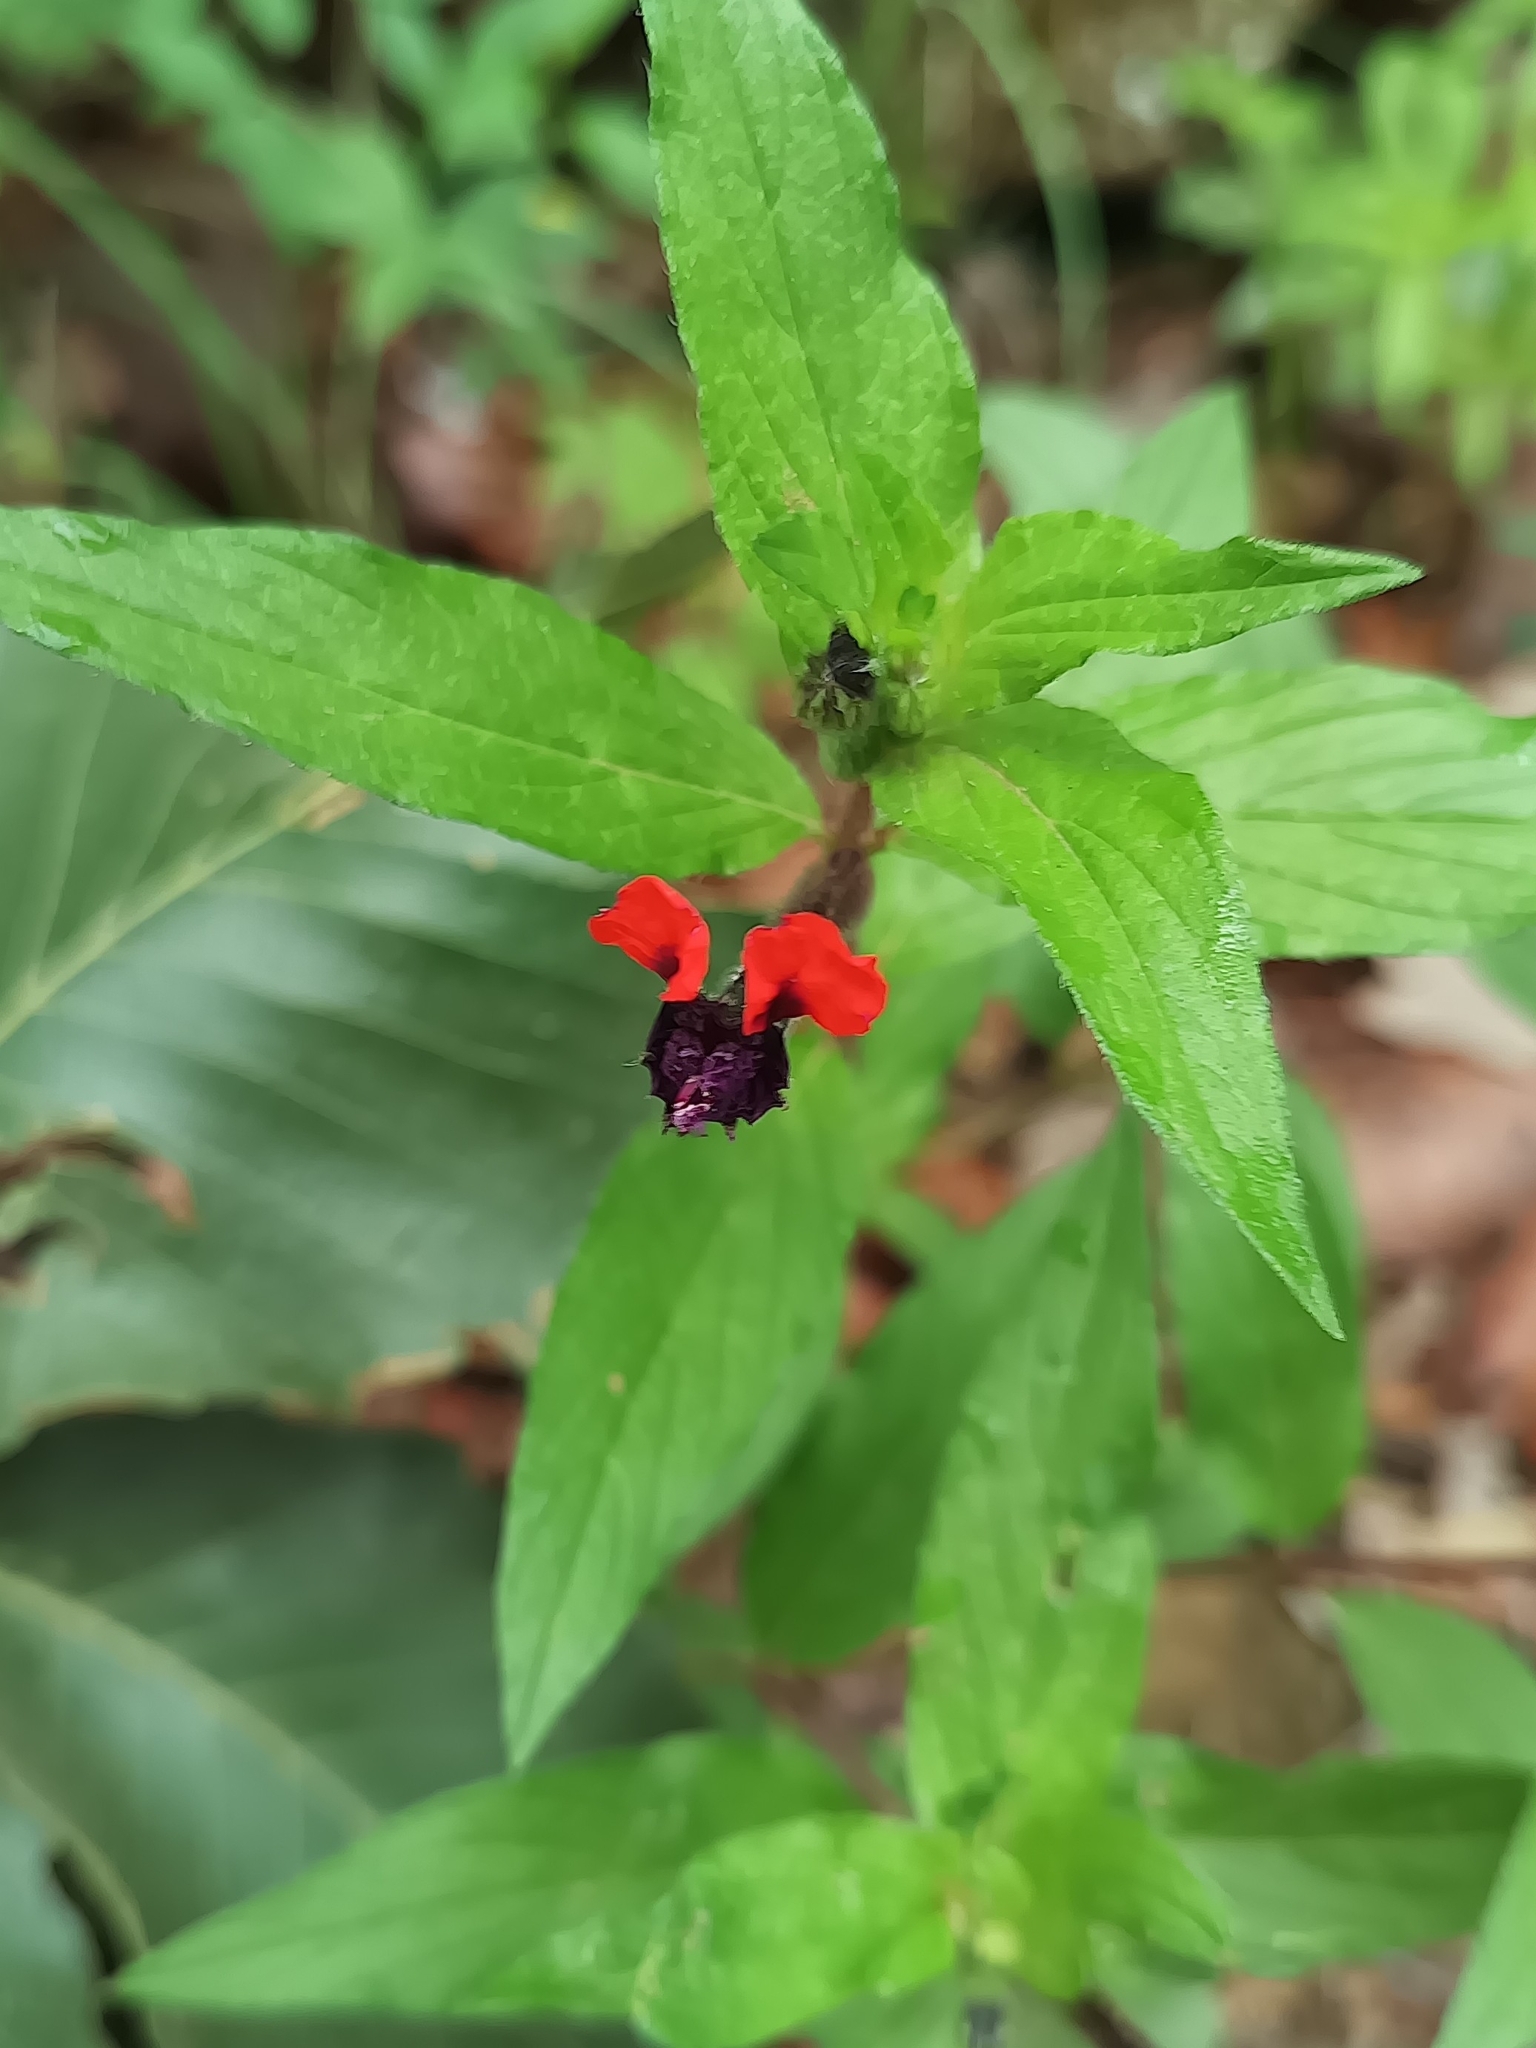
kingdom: Plantae
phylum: Tracheophyta
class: Magnoliopsida
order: Myrtales
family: Lythraceae
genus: Cuphea
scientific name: Cuphea llavea
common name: Tiny-mice
